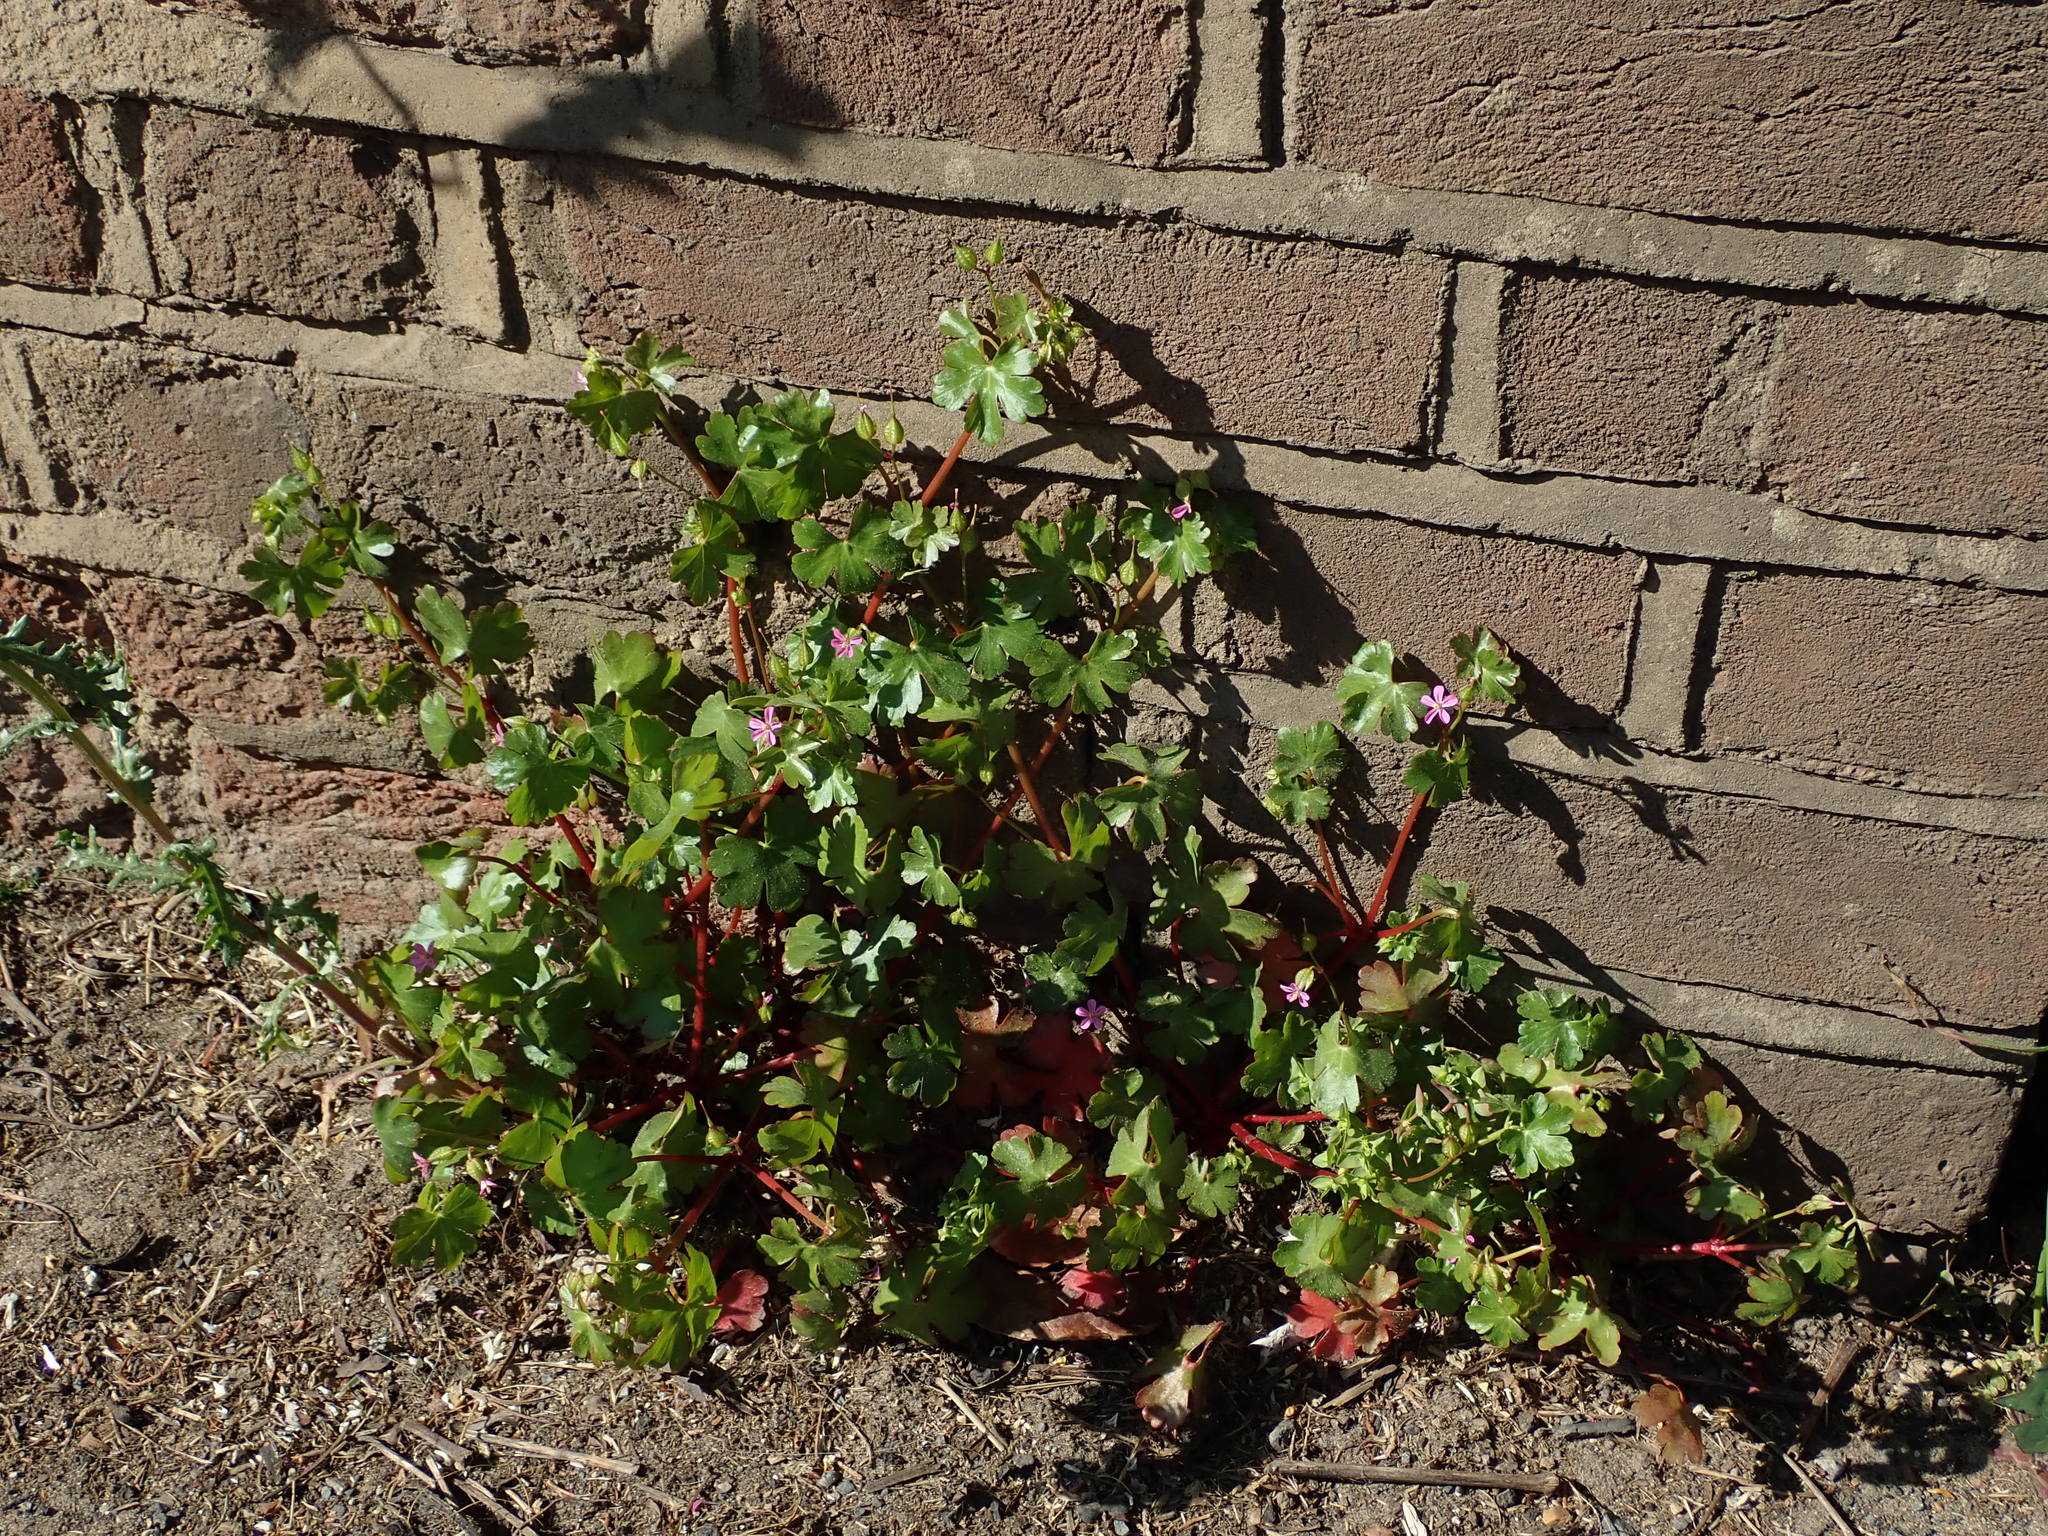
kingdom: Plantae
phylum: Tracheophyta
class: Magnoliopsida
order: Geraniales
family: Geraniaceae
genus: Geranium
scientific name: Geranium lucidum
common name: Shining crane's-bill
